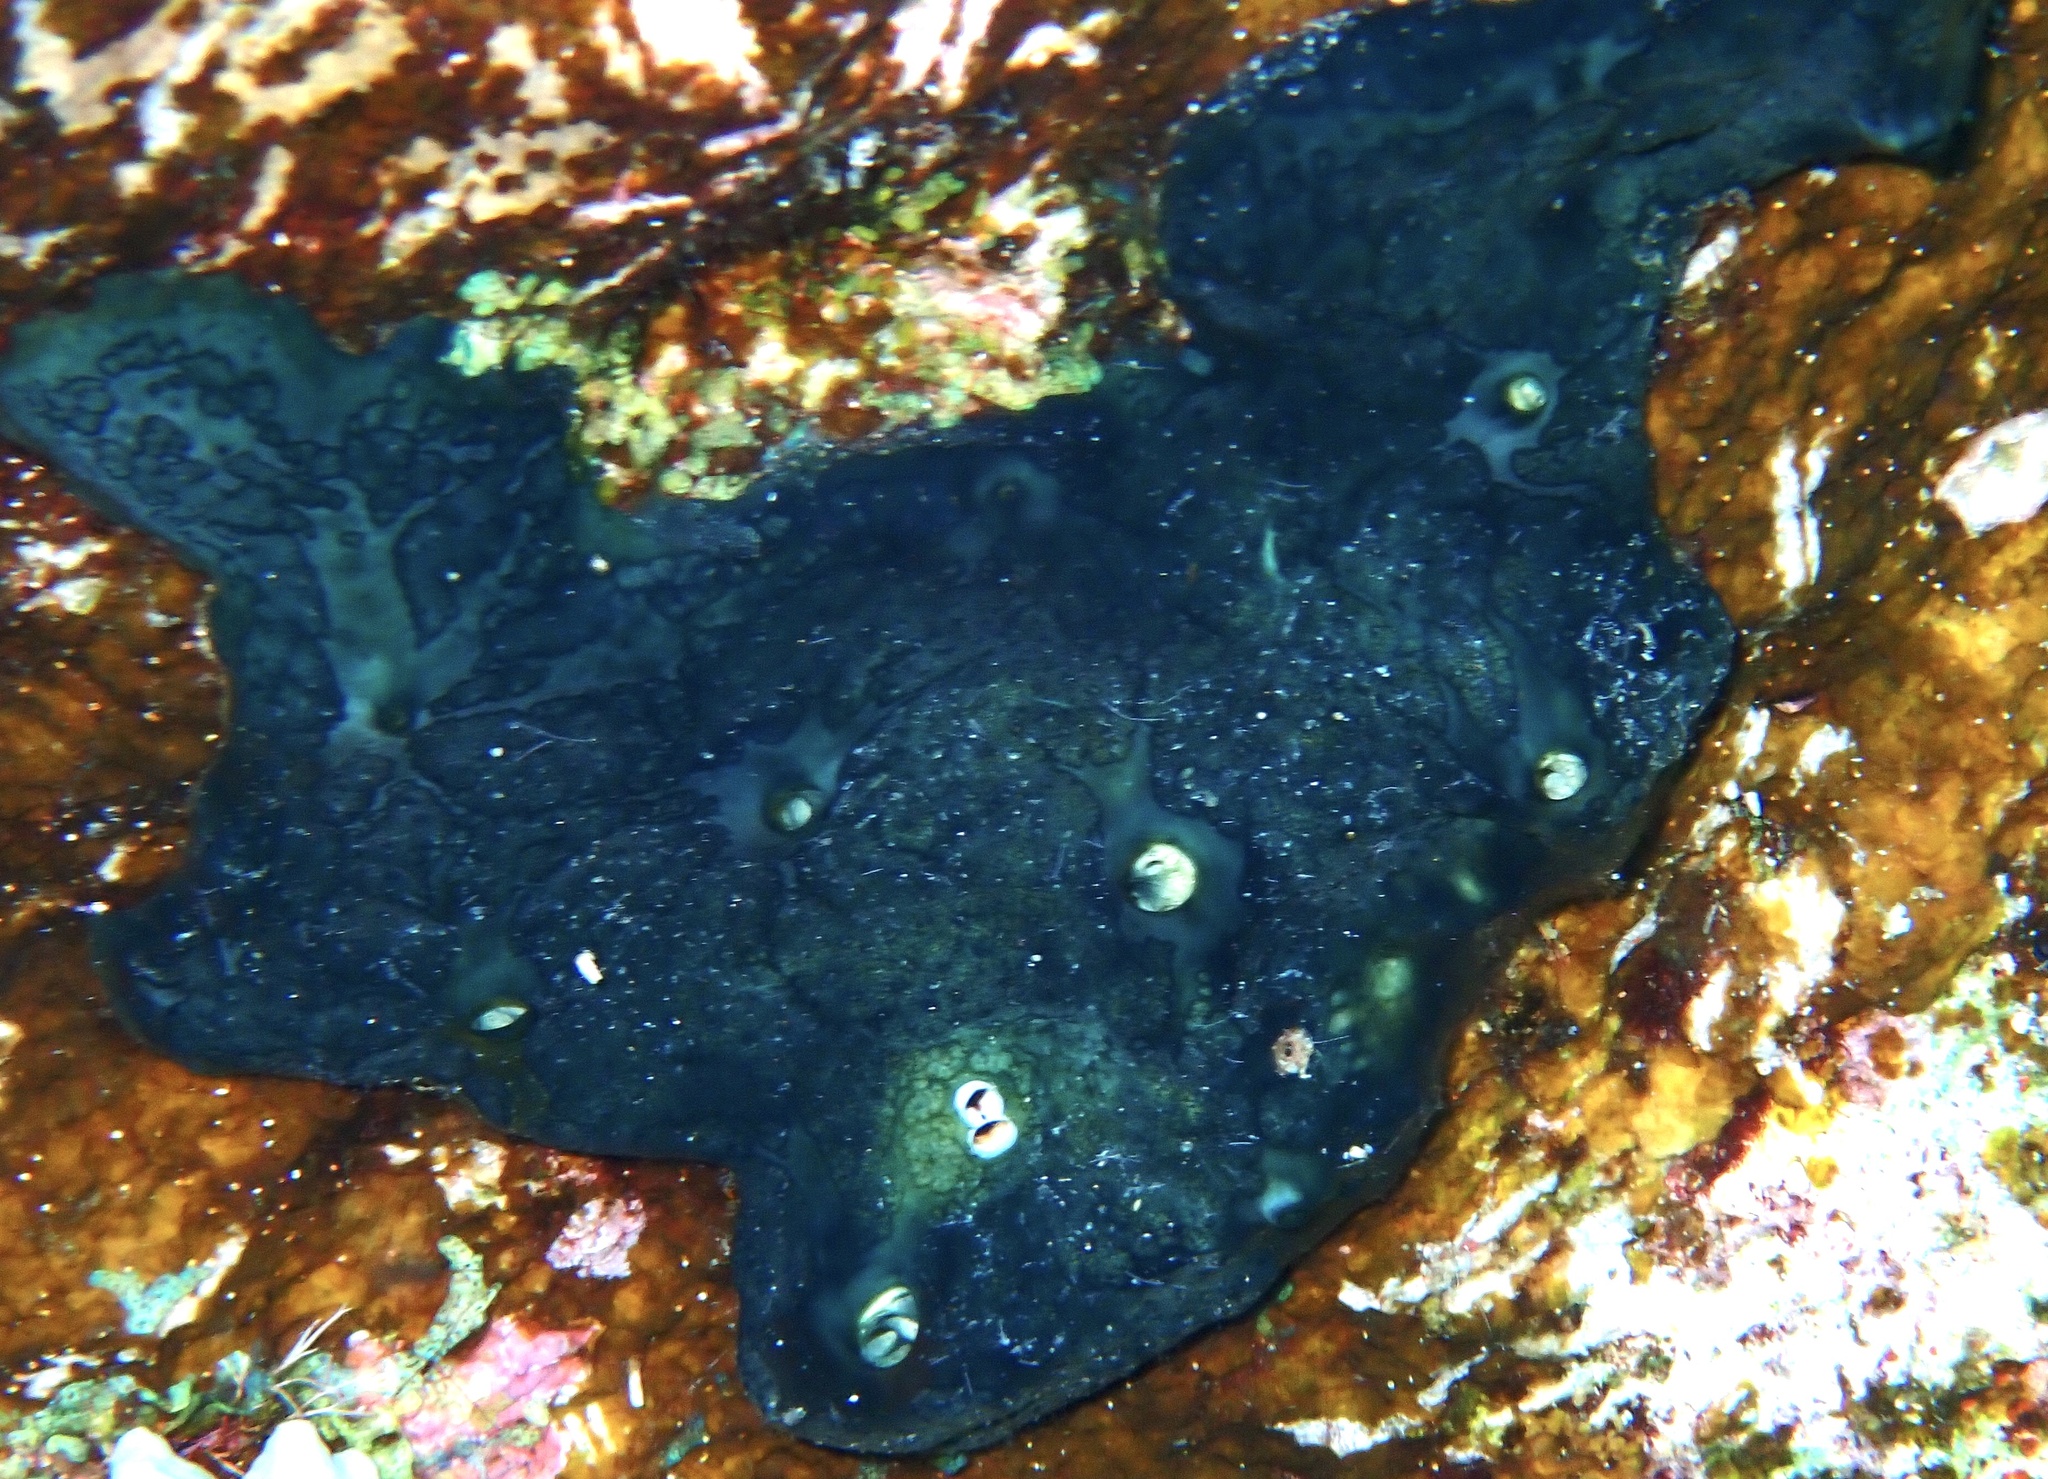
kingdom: Animalia
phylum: Porifera
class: Demospongiae
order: Poecilosclerida
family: Hymedesmiidae
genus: Hemimycale
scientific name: Hemimycale arabica
